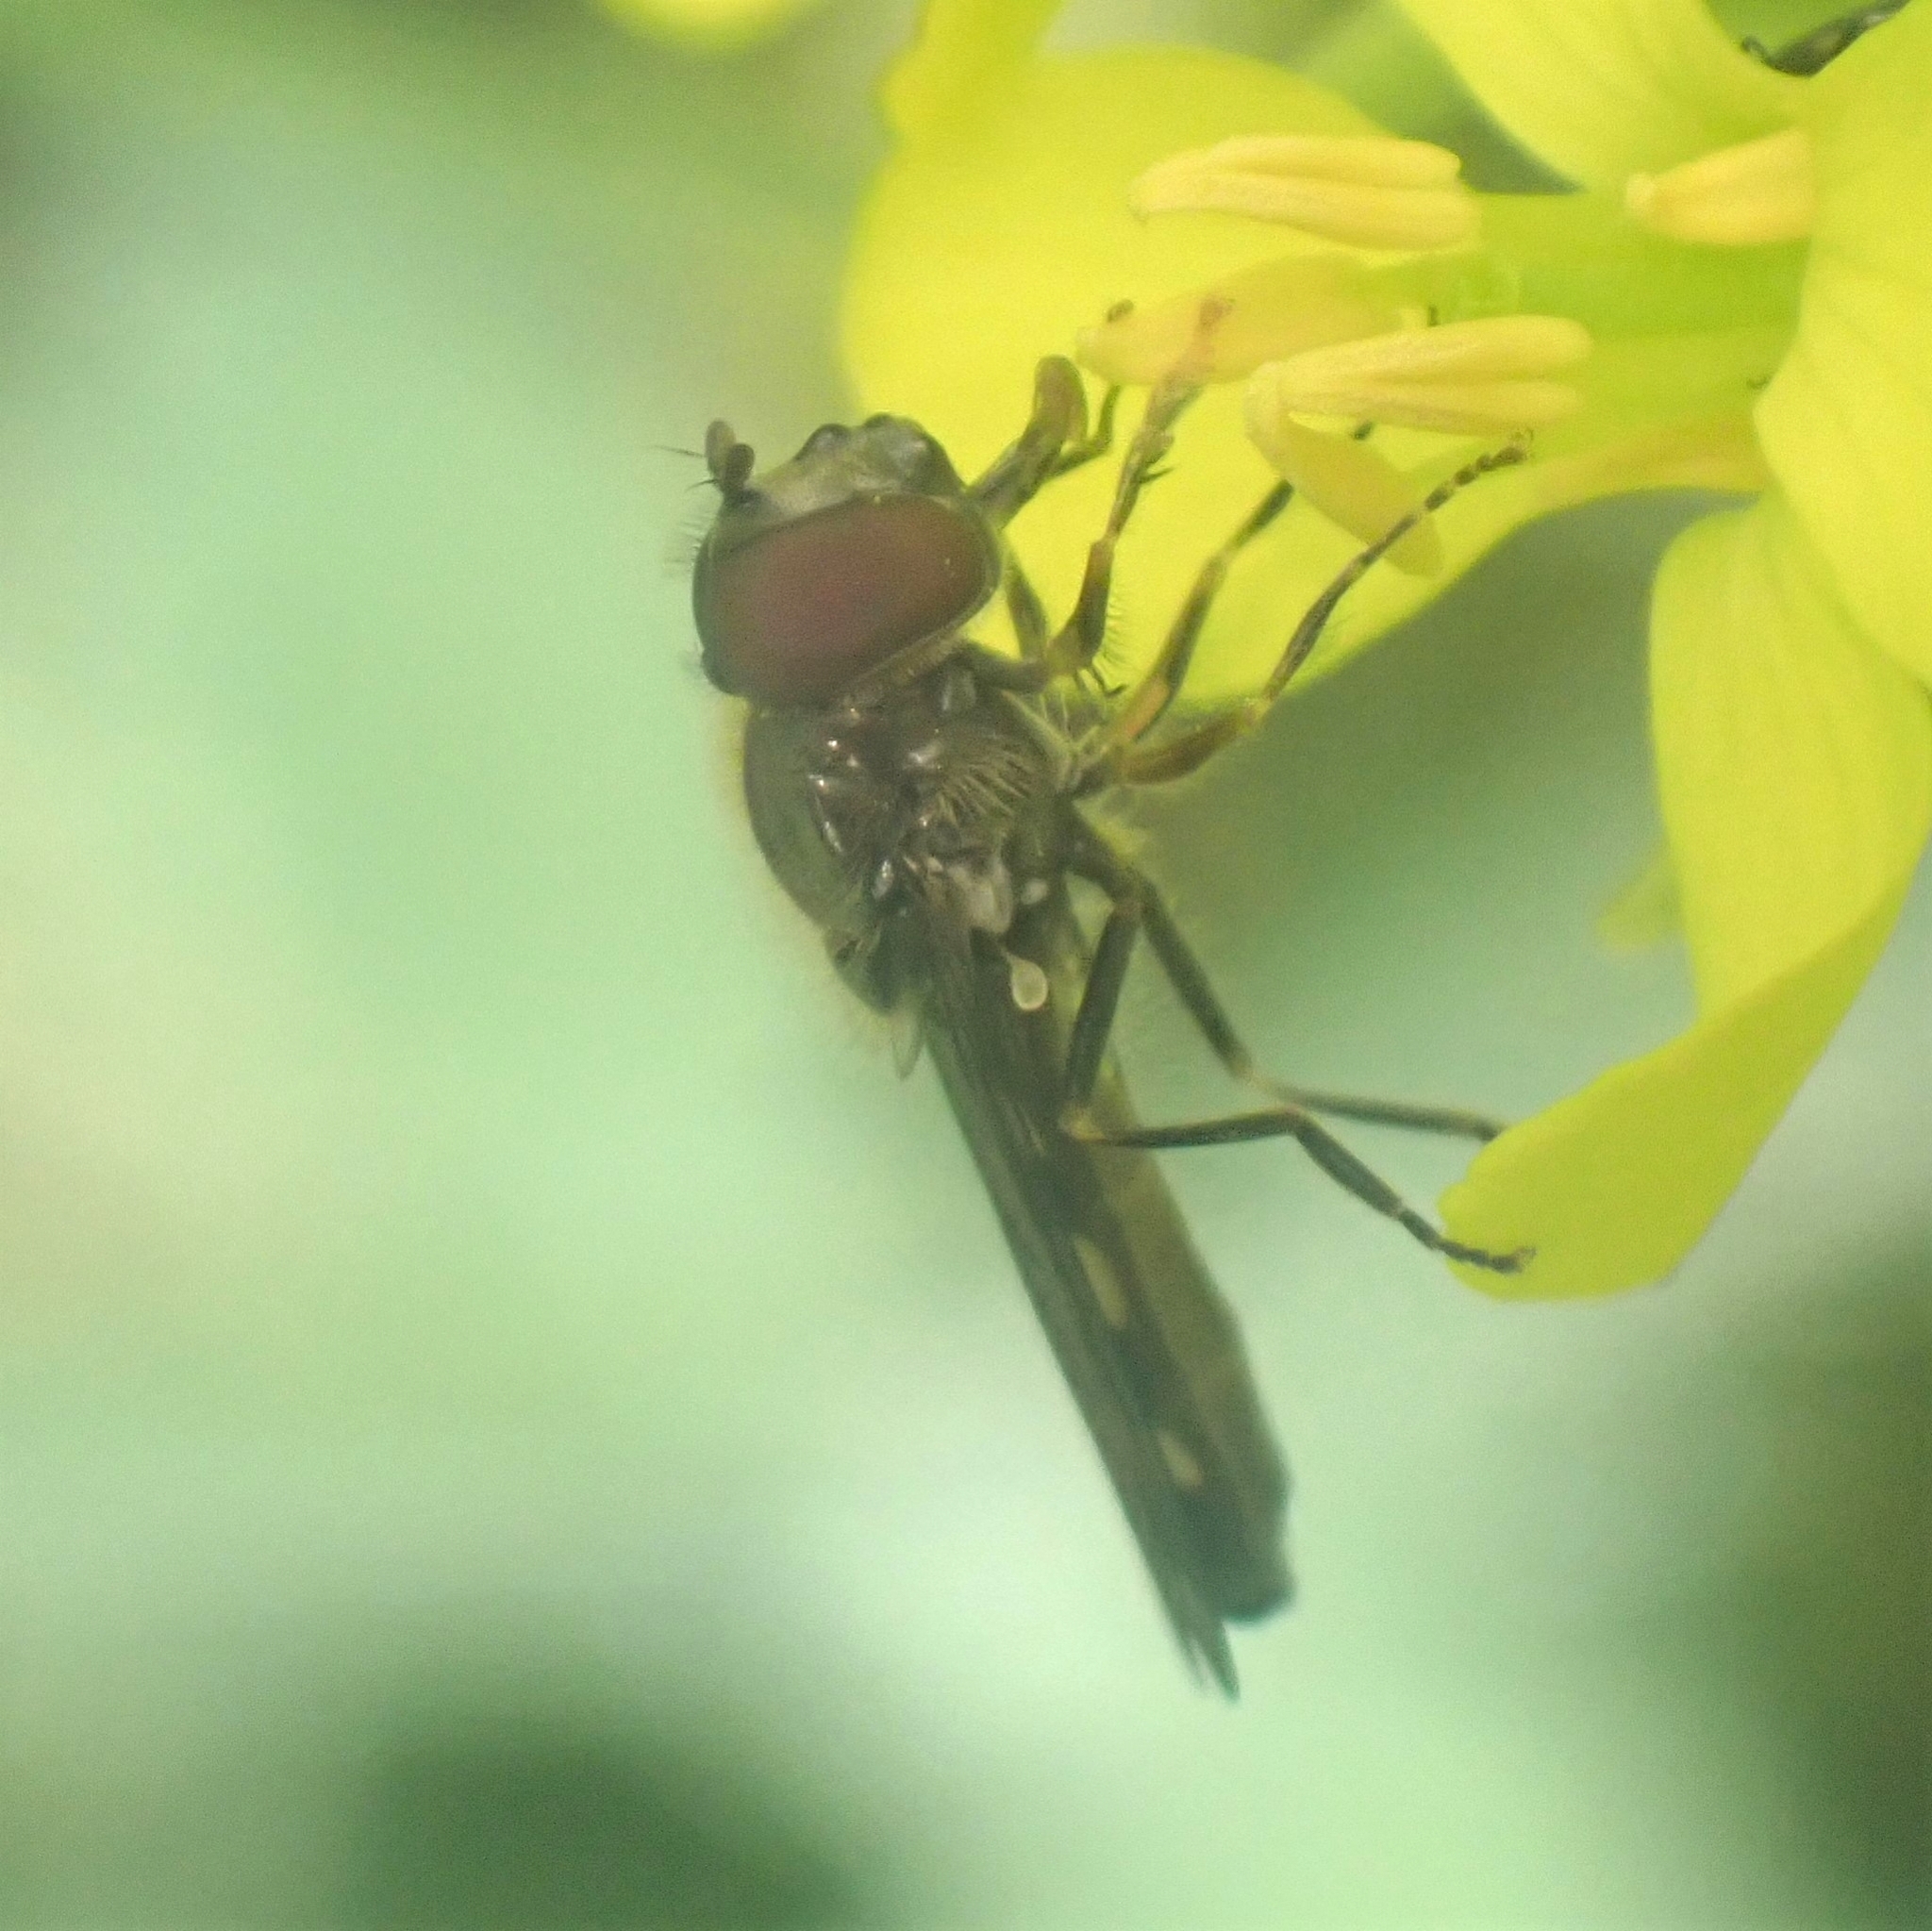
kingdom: Animalia
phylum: Arthropoda
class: Insecta
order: Diptera
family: Syrphidae
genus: Platycheirus
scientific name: Platycheirus
